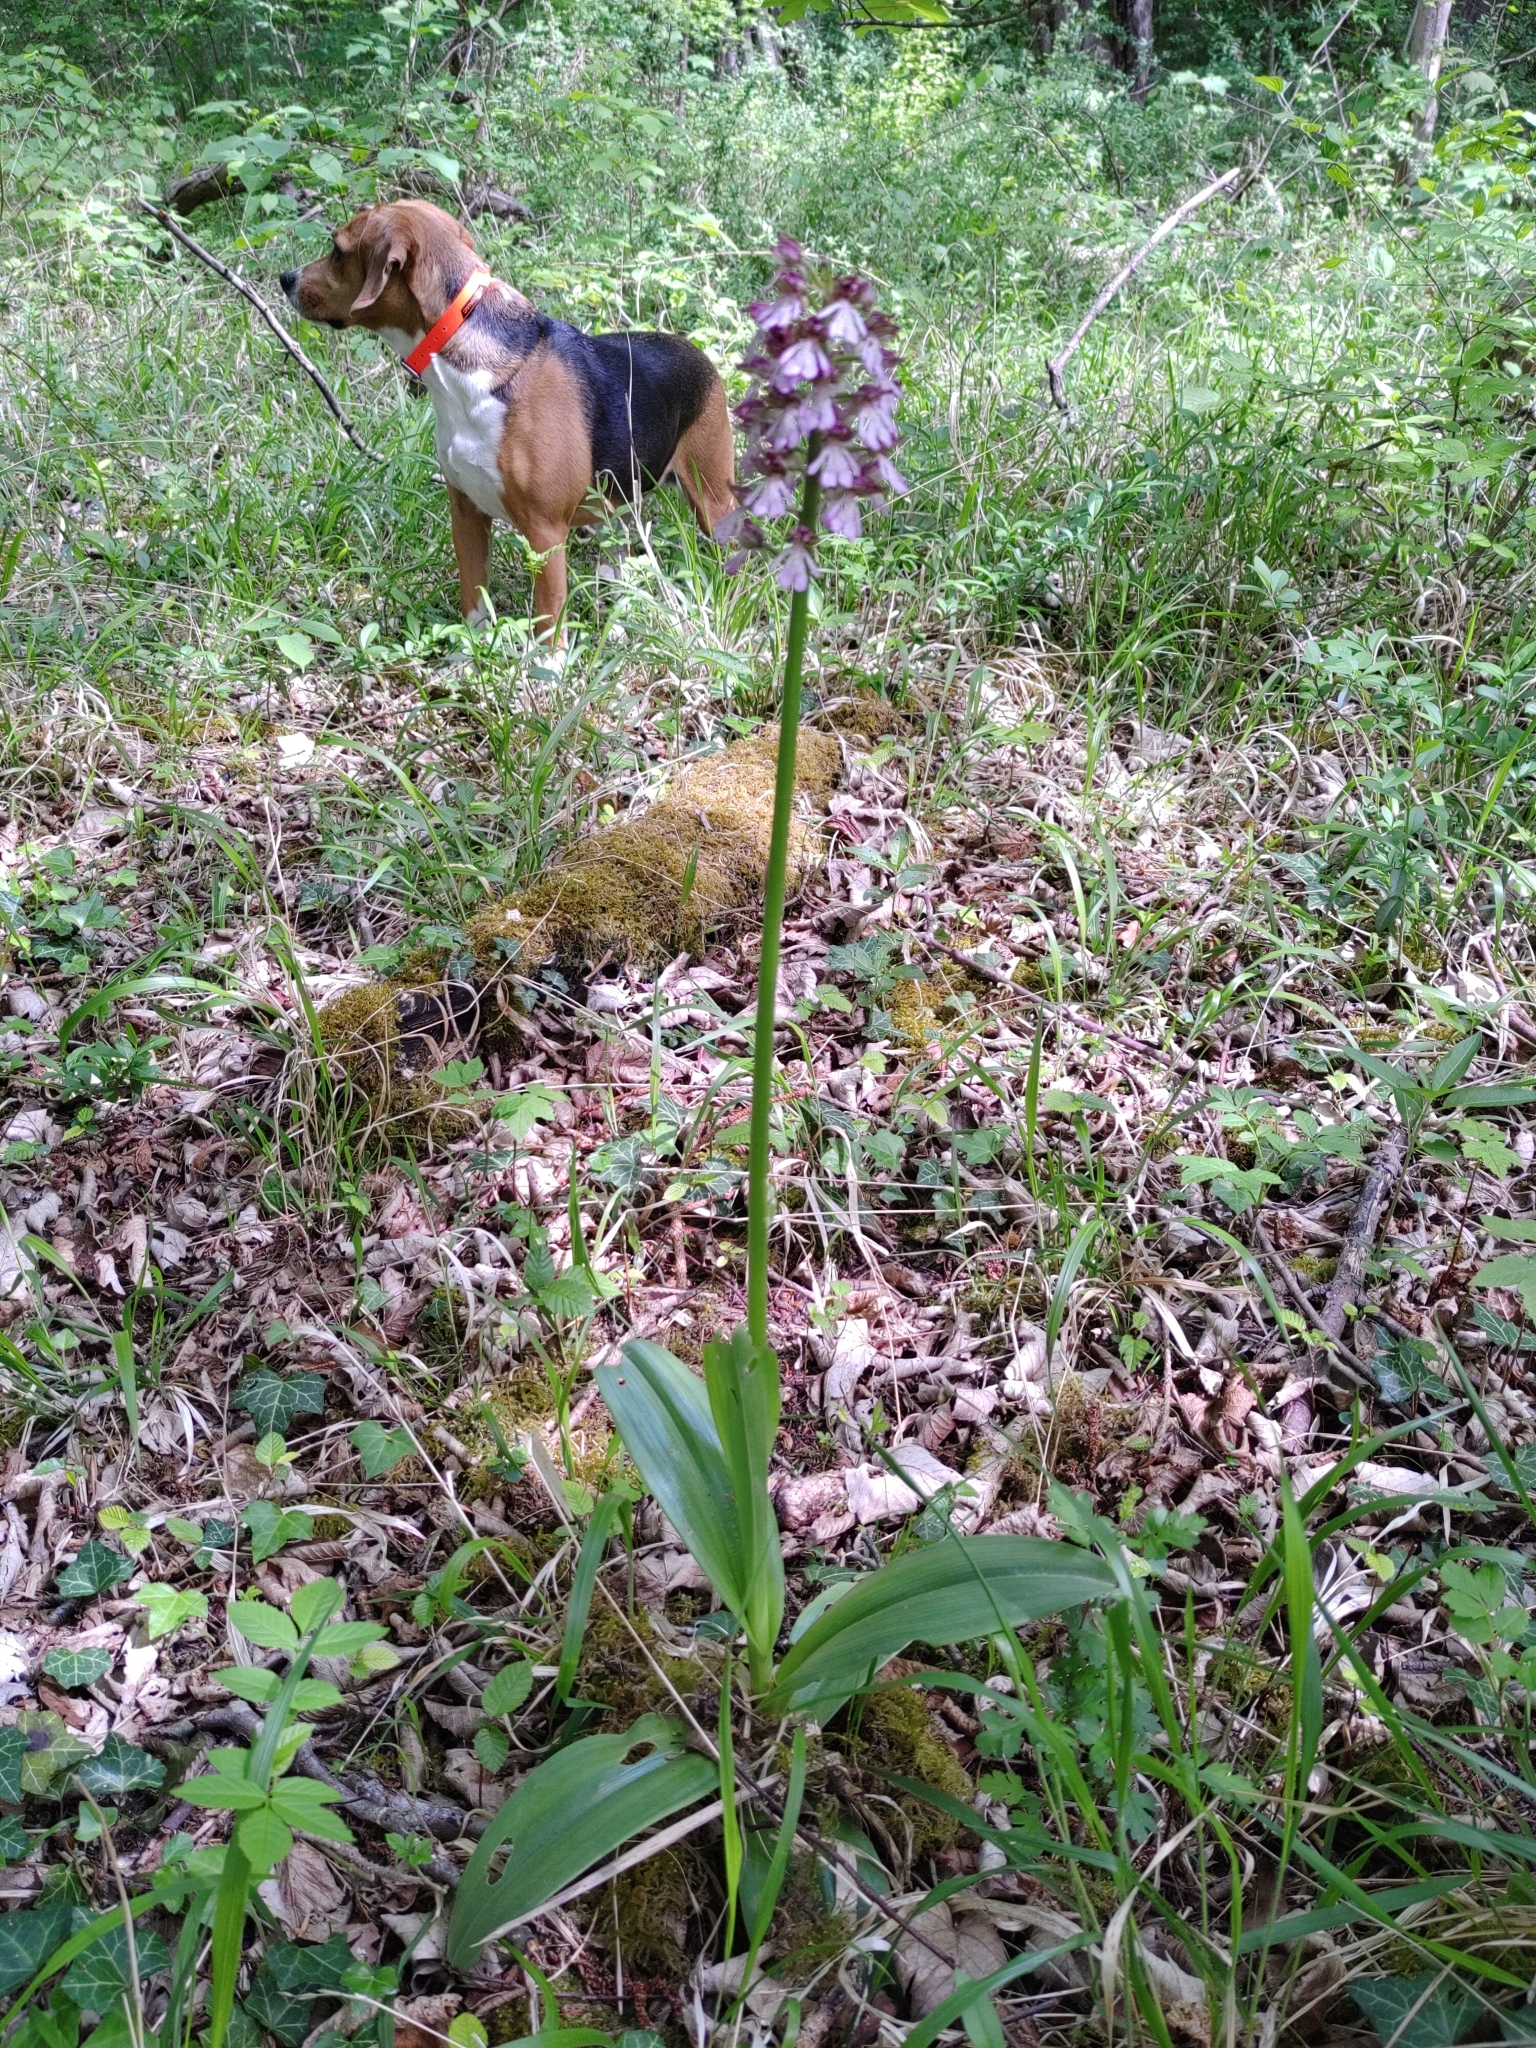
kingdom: Plantae
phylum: Tracheophyta
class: Liliopsida
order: Asparagales
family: Orchidaceae
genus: Orchis
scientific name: Orchis purpurea
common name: Lady orchid
